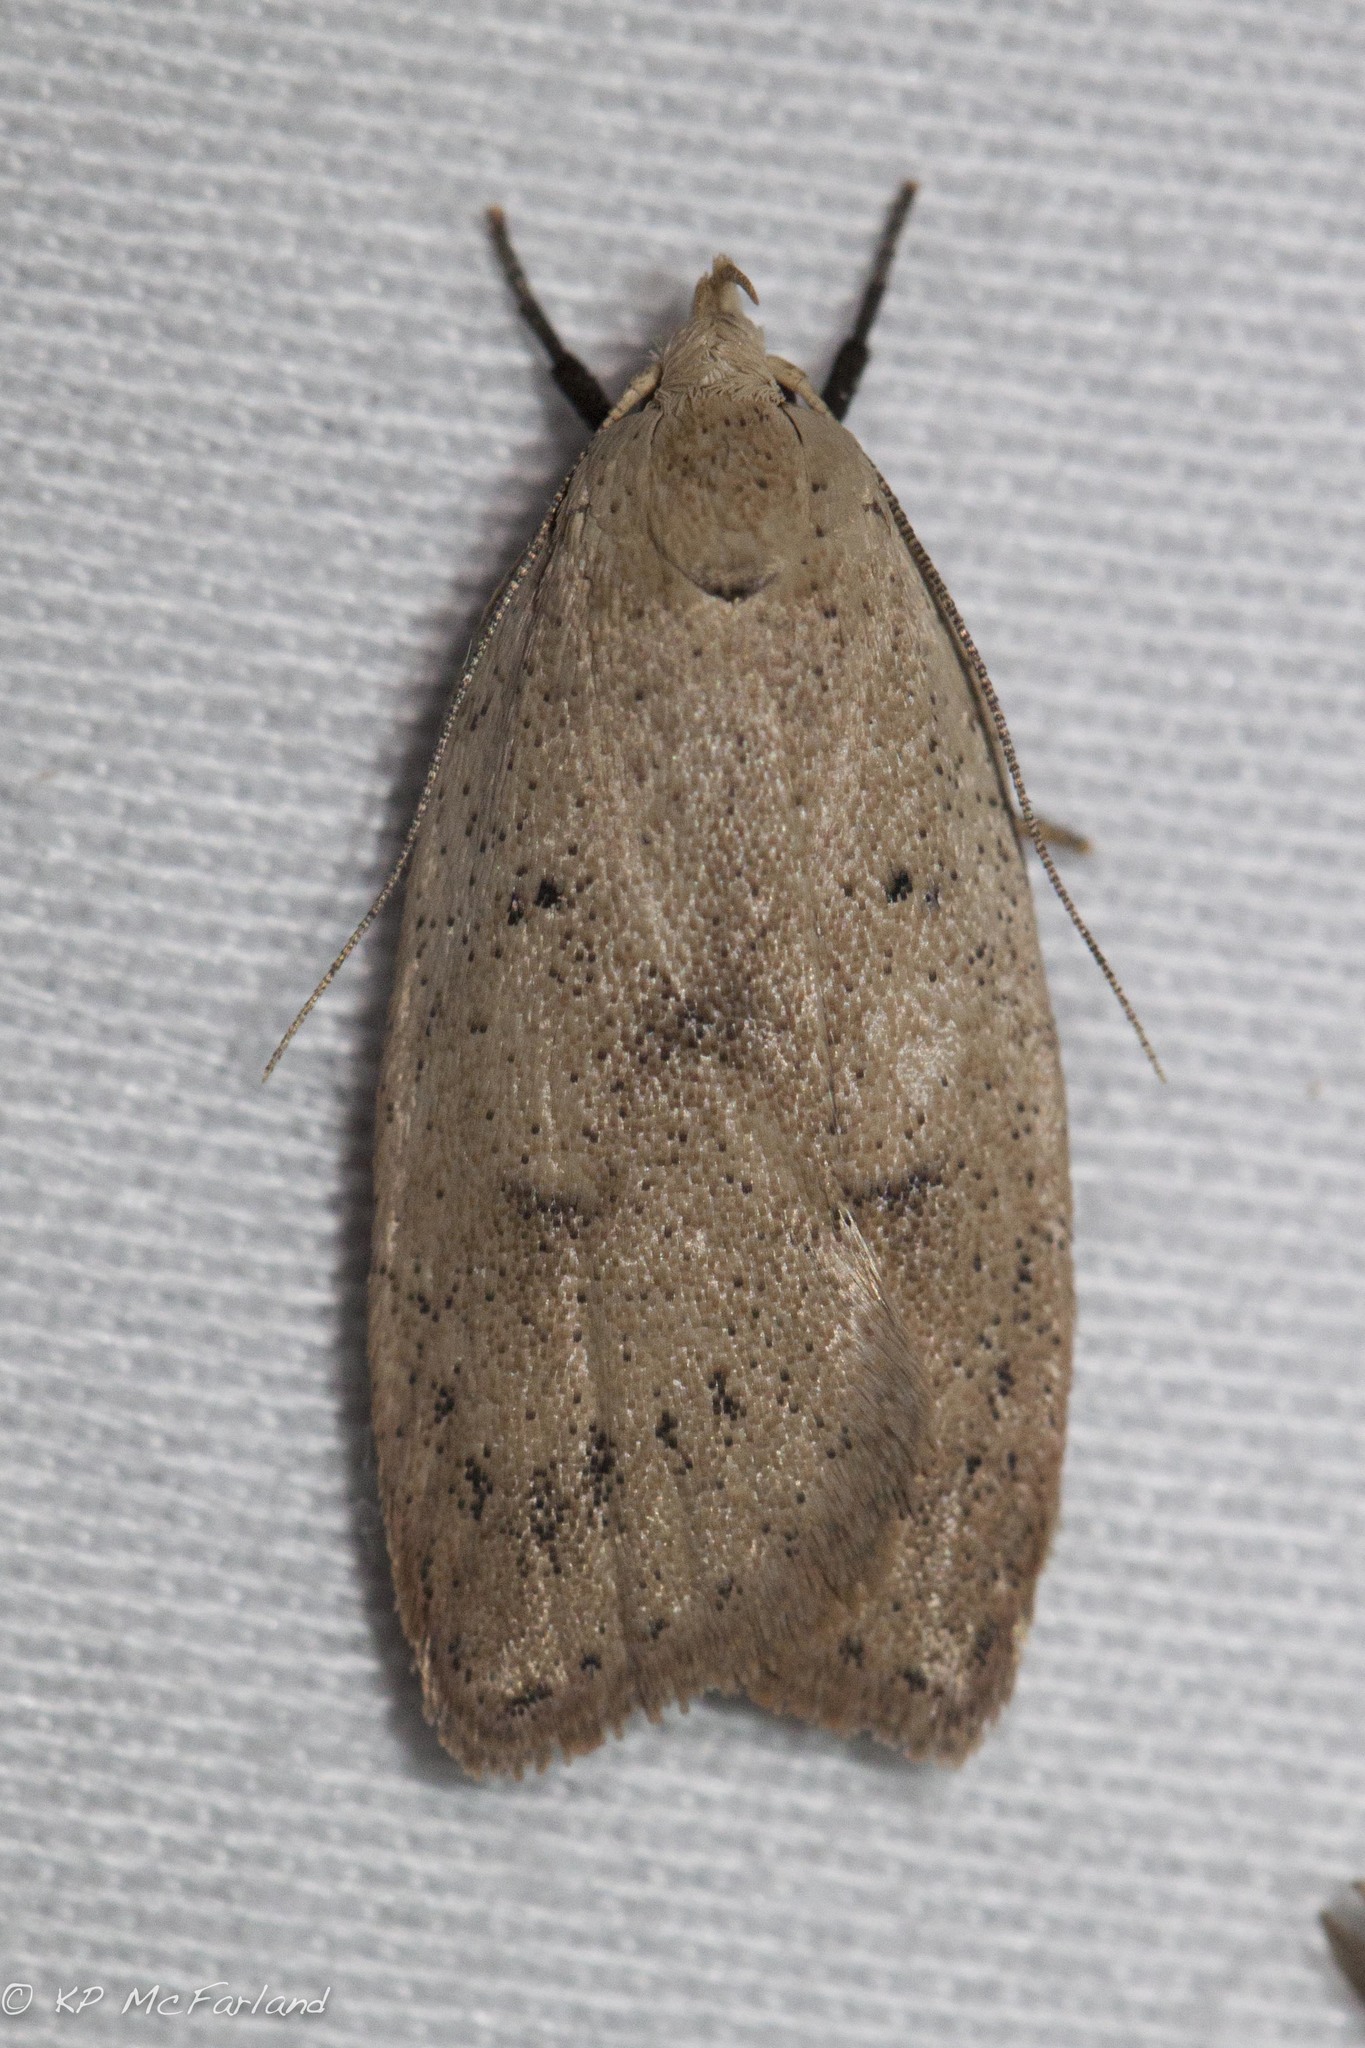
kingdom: Animalia
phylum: Arthropoda
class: Insecta
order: Lepidoptera
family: Peleopodidae
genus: Machimia
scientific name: Machimia tentoriferella
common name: Gold-striped leaftier moth
